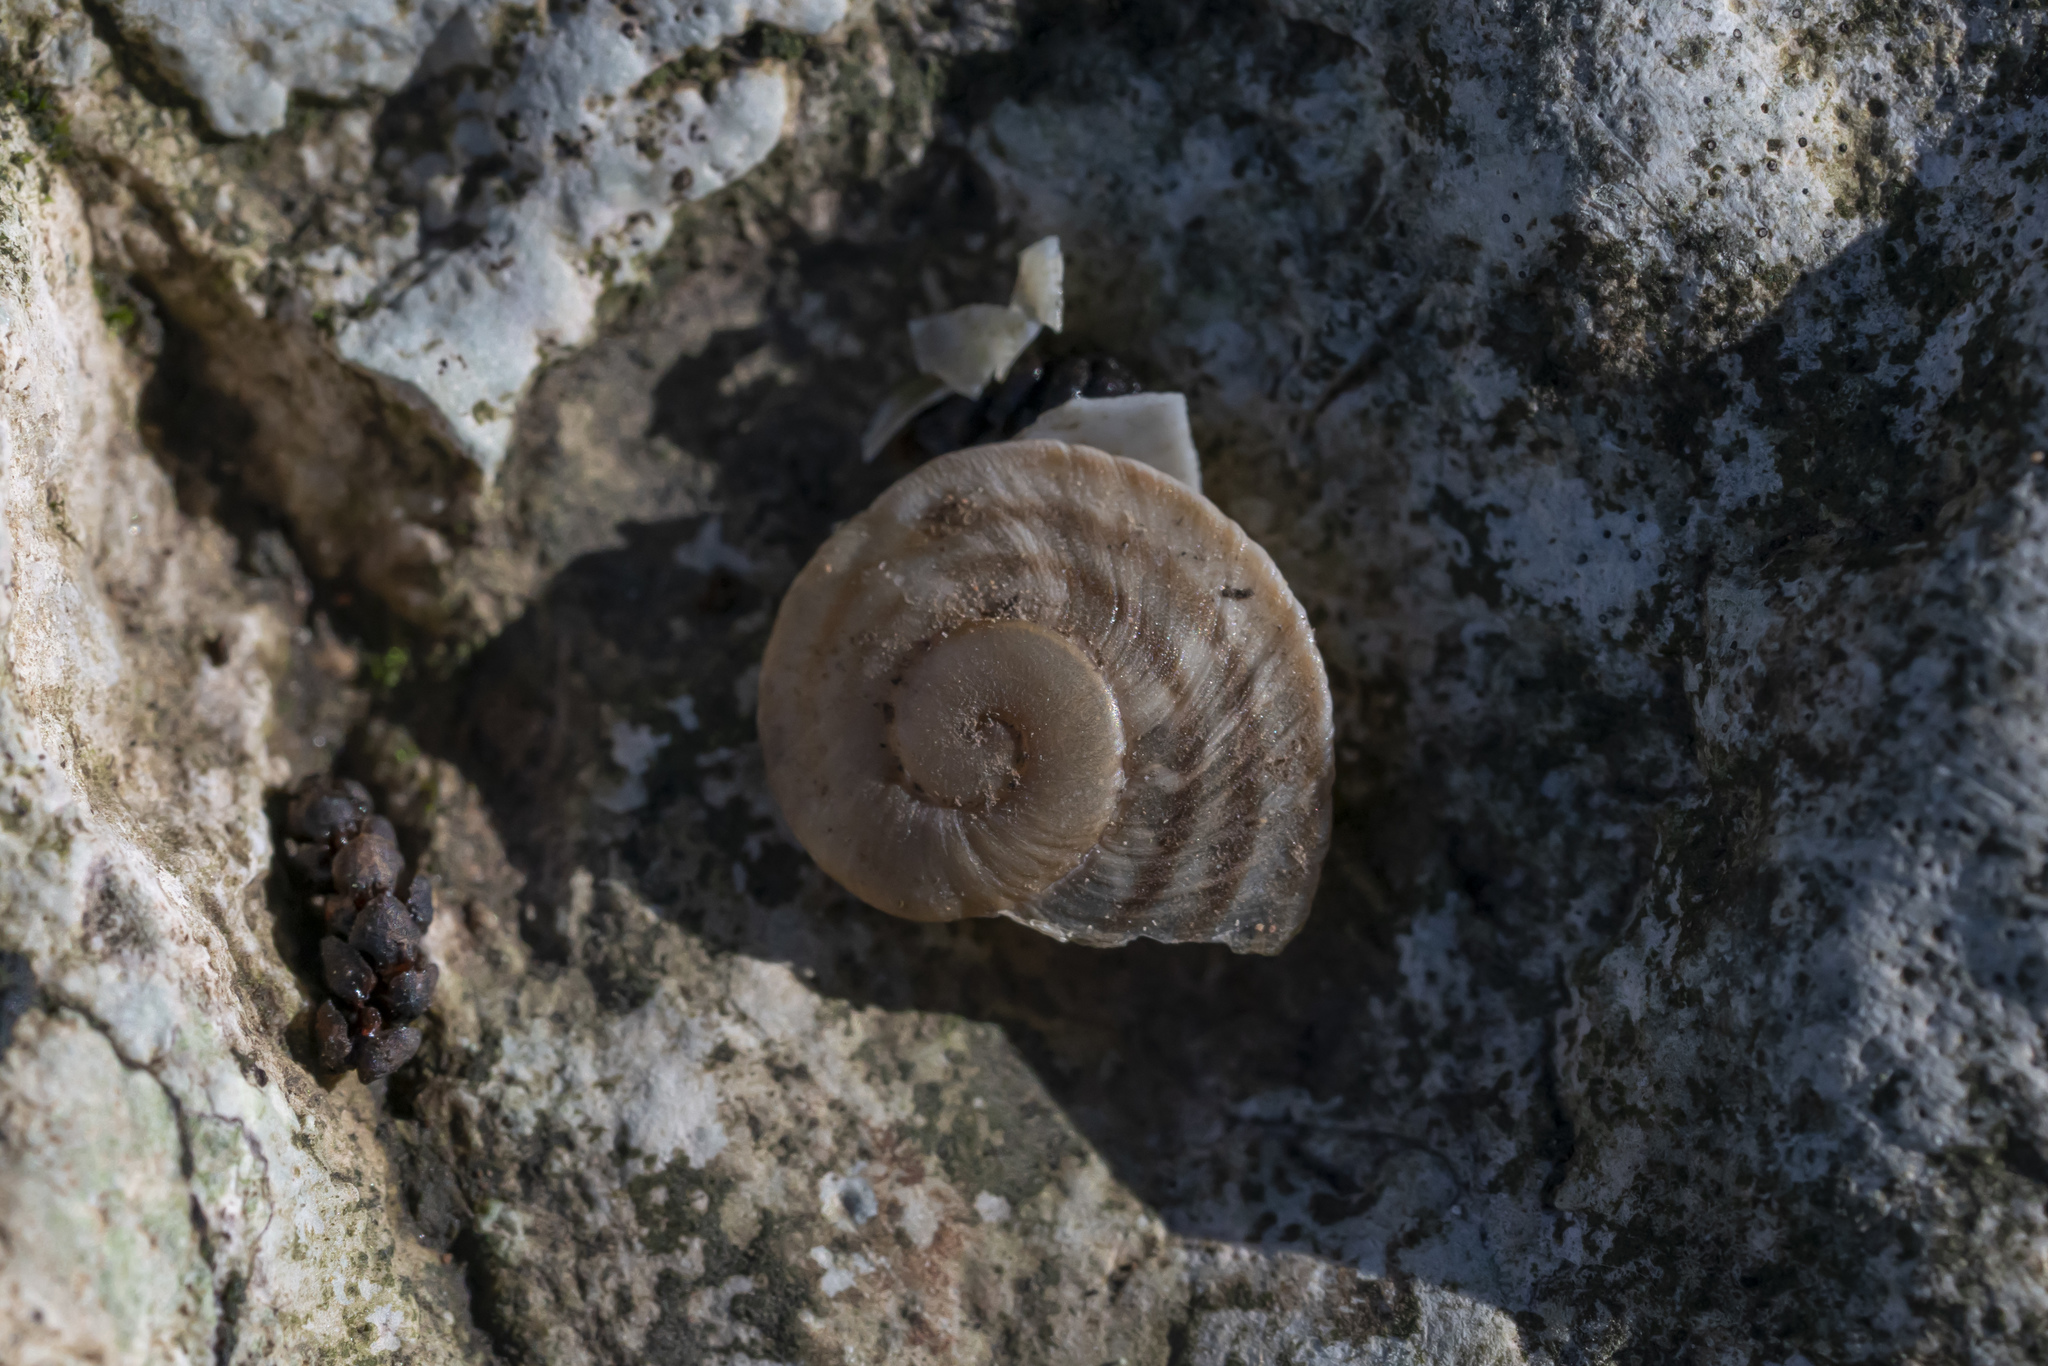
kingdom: Animalia
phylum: Mollusca
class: Gastropoda
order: Stylommatophora
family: Helicidae
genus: Levantina
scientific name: Levantina spiriplana
